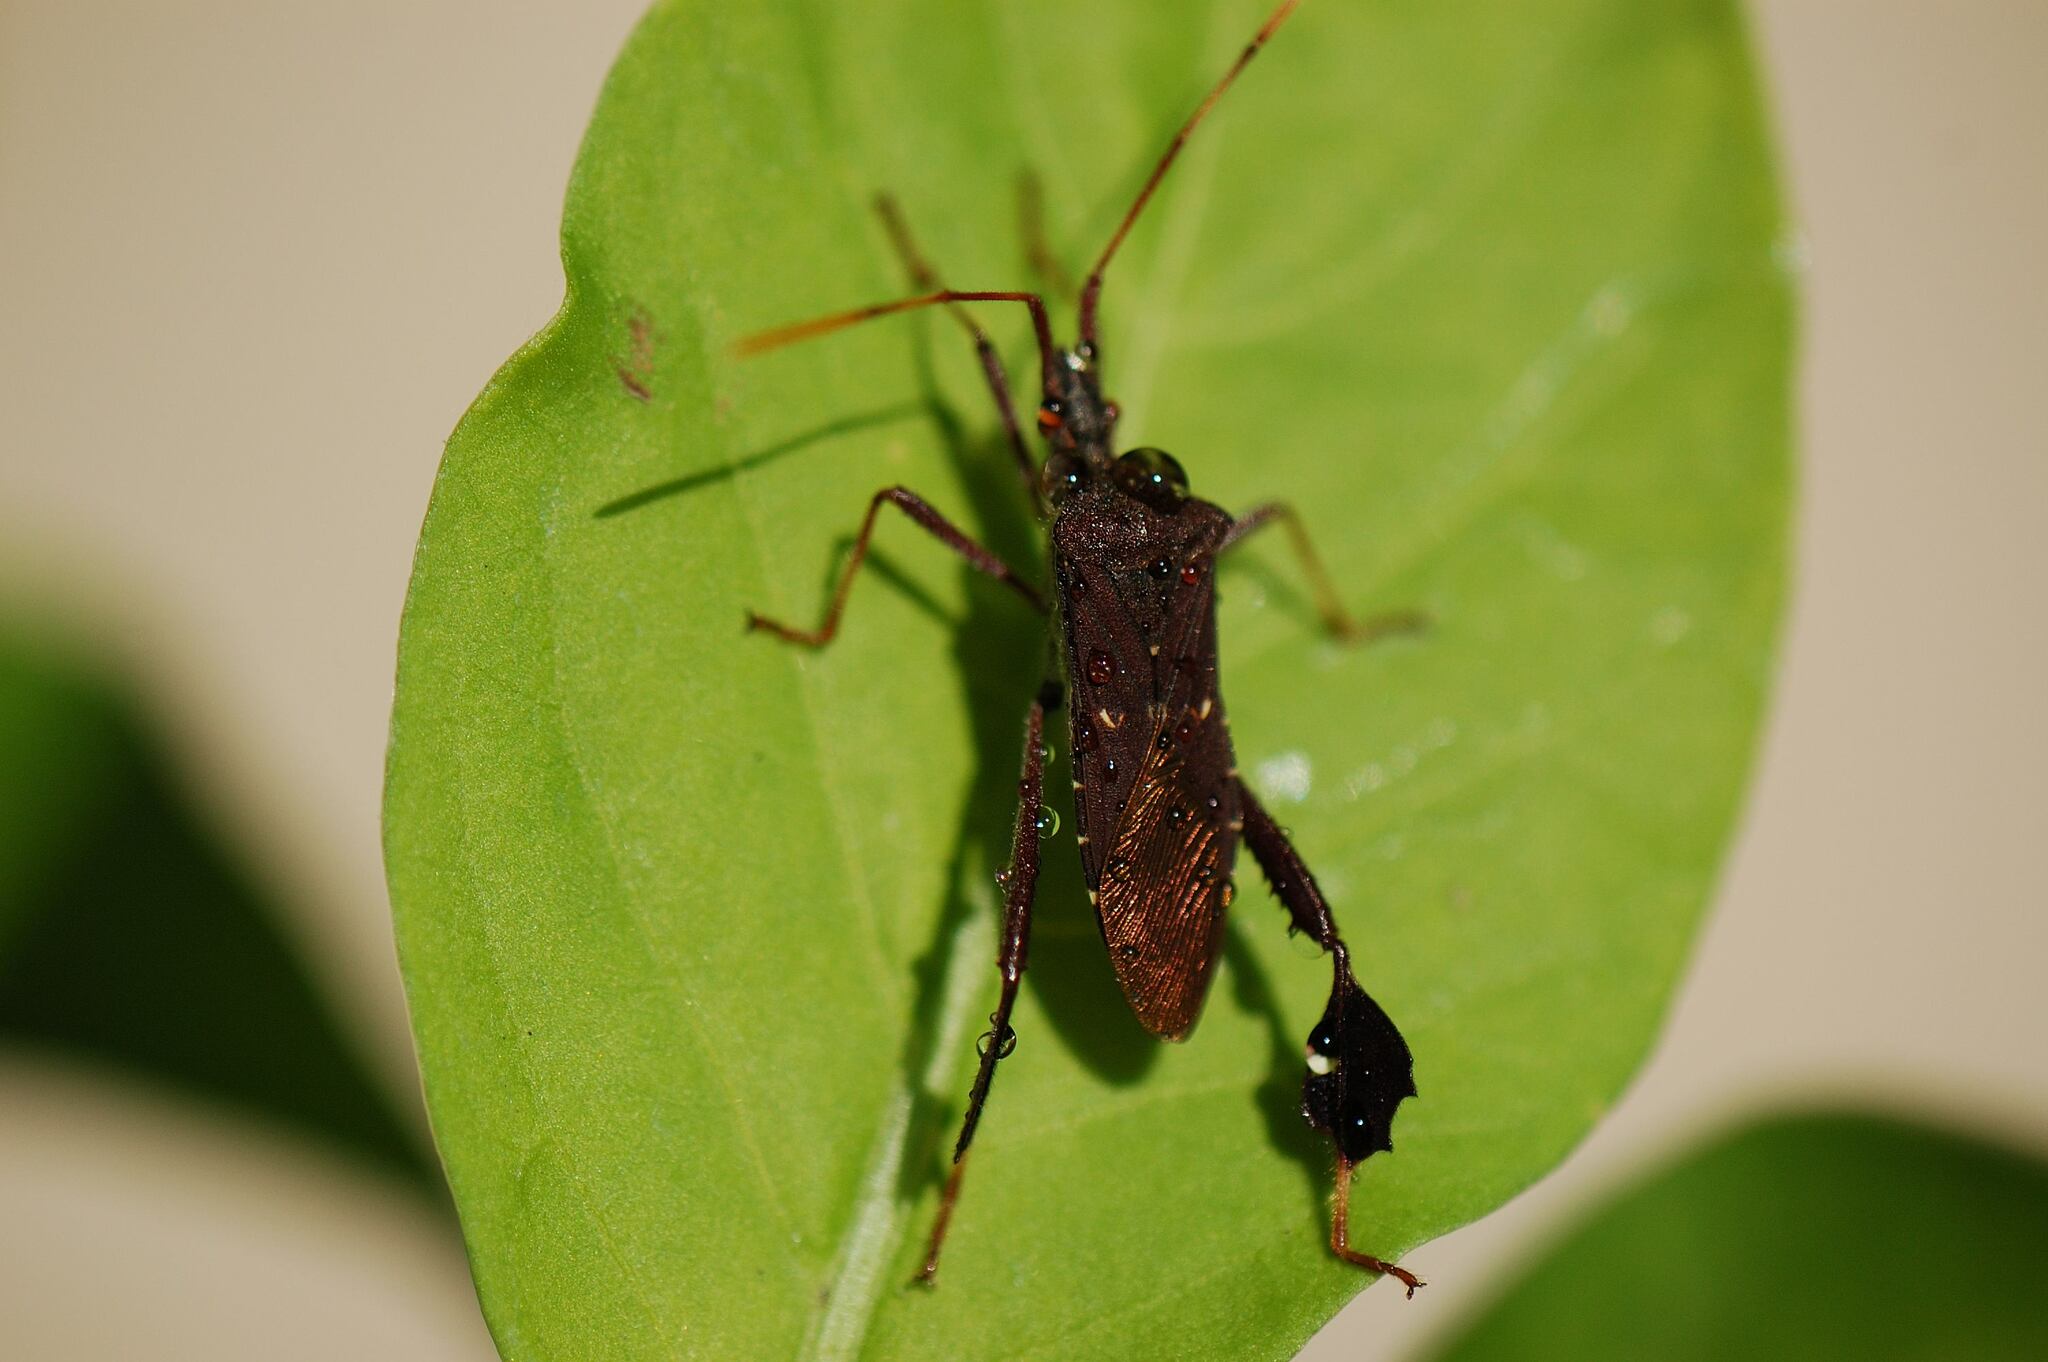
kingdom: Animalia
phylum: Arthropoda
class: Insecta
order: Hemiptera
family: Coreidae
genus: Leptoglossus
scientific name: Leptoglossus oppositus
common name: Northern leaf-footed bug
